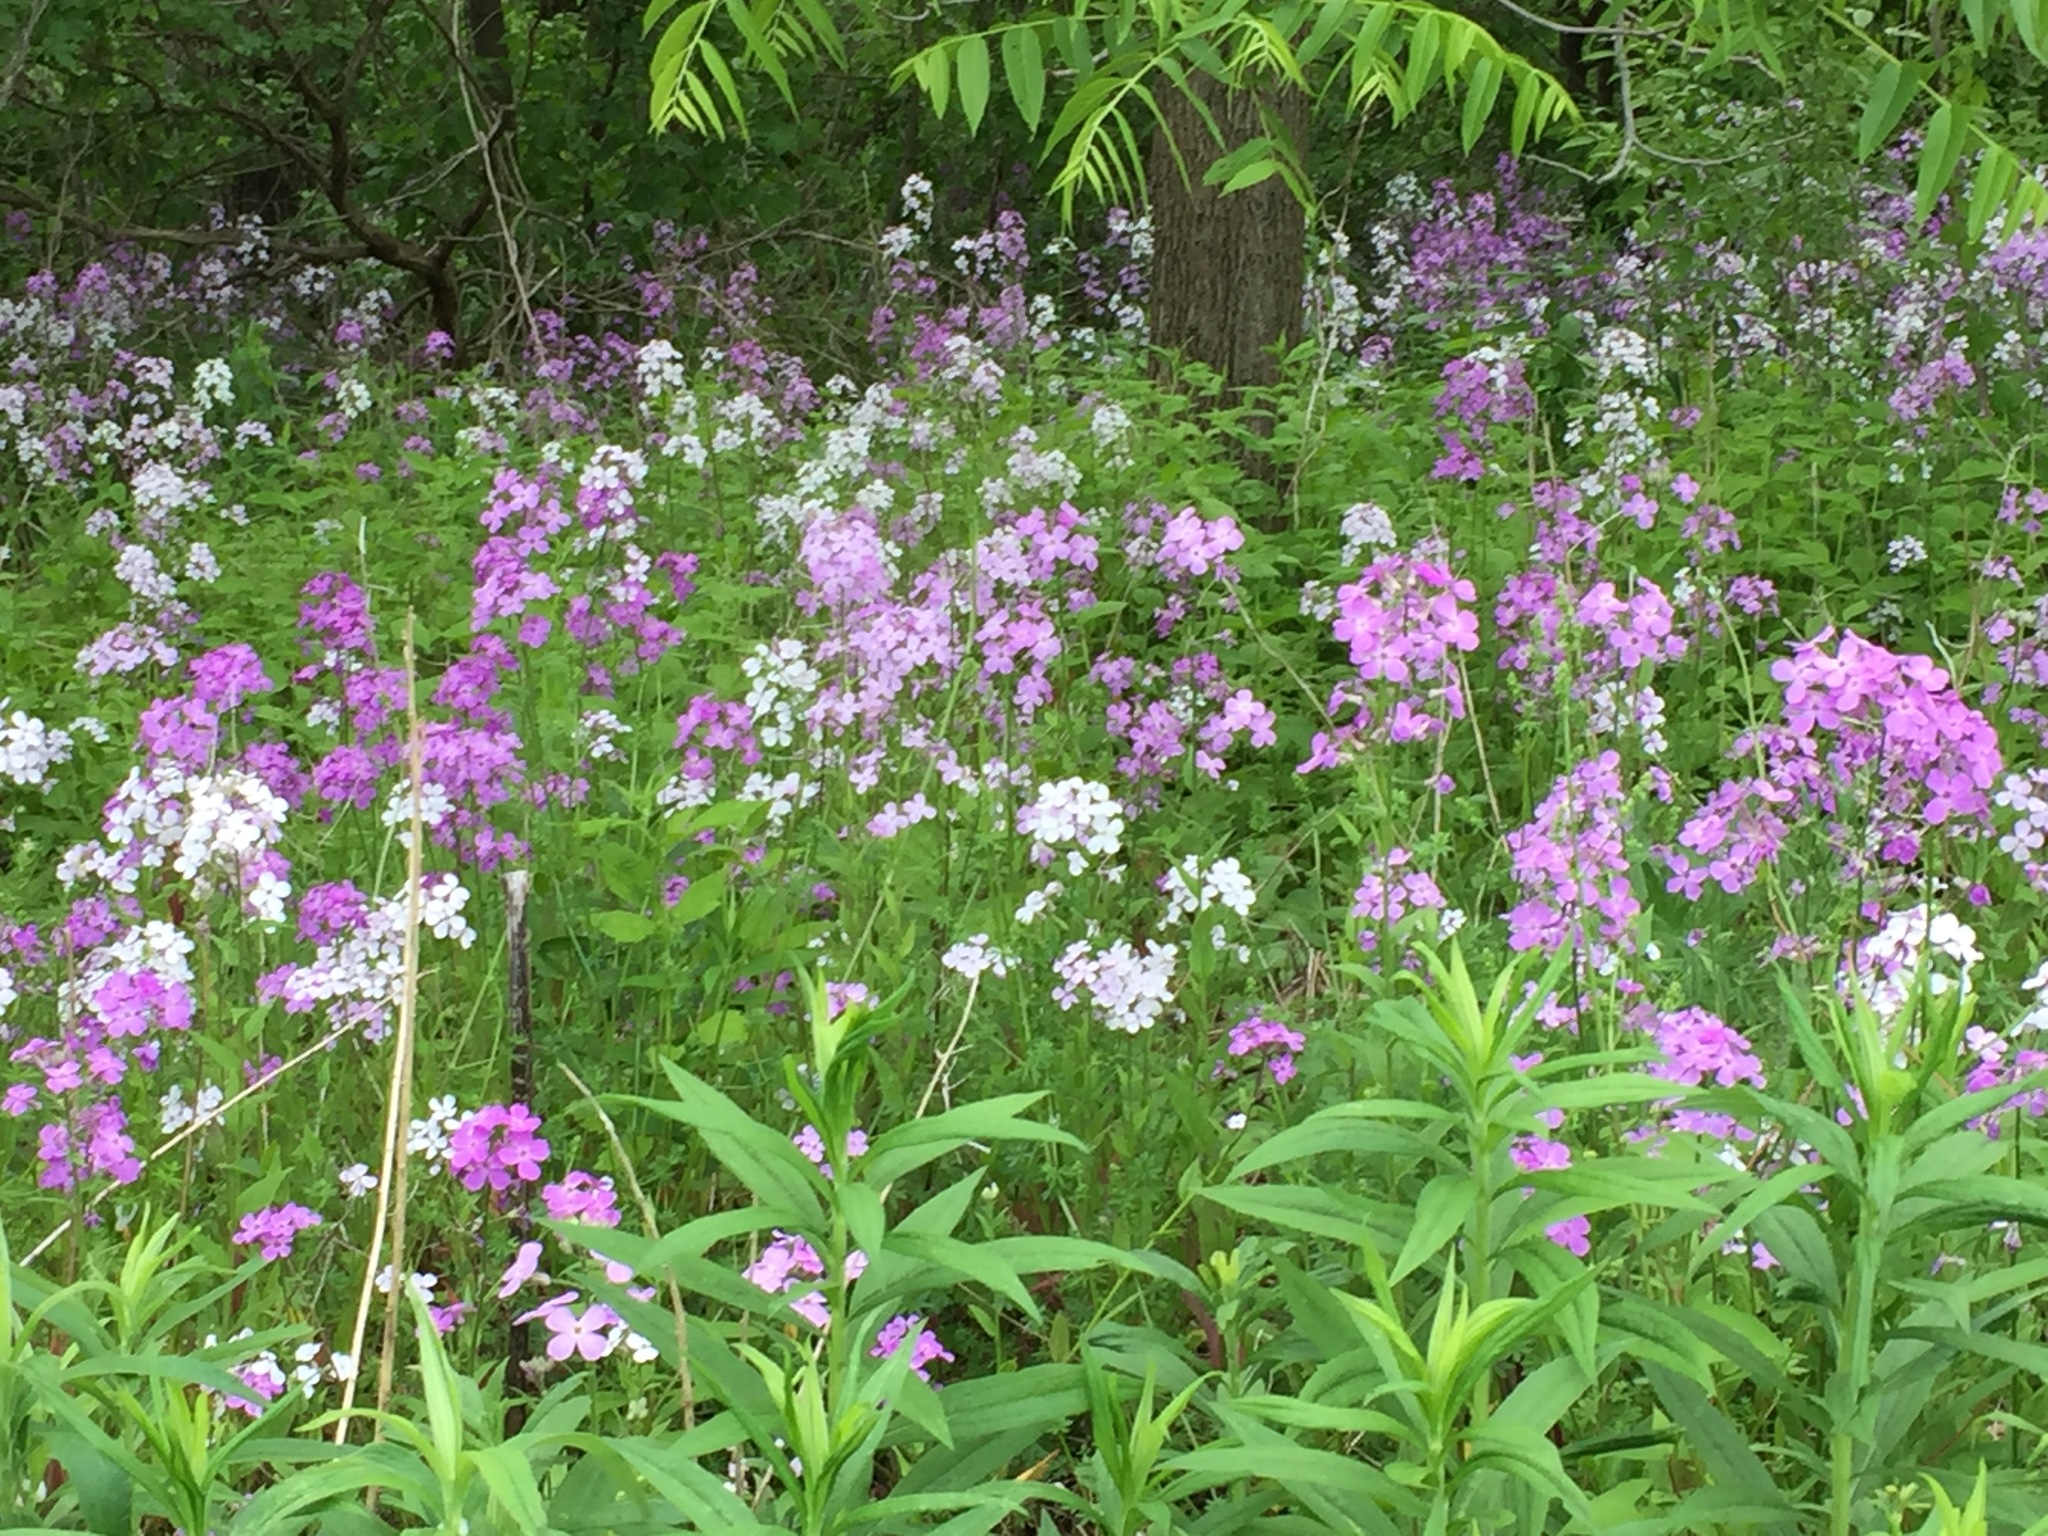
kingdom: Plantae
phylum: Tracheophyta
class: Magnoliopsida
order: Brassicales
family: Brassicaceae
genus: Hesperis
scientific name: Hesperis matronalis
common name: Dame's-violet
